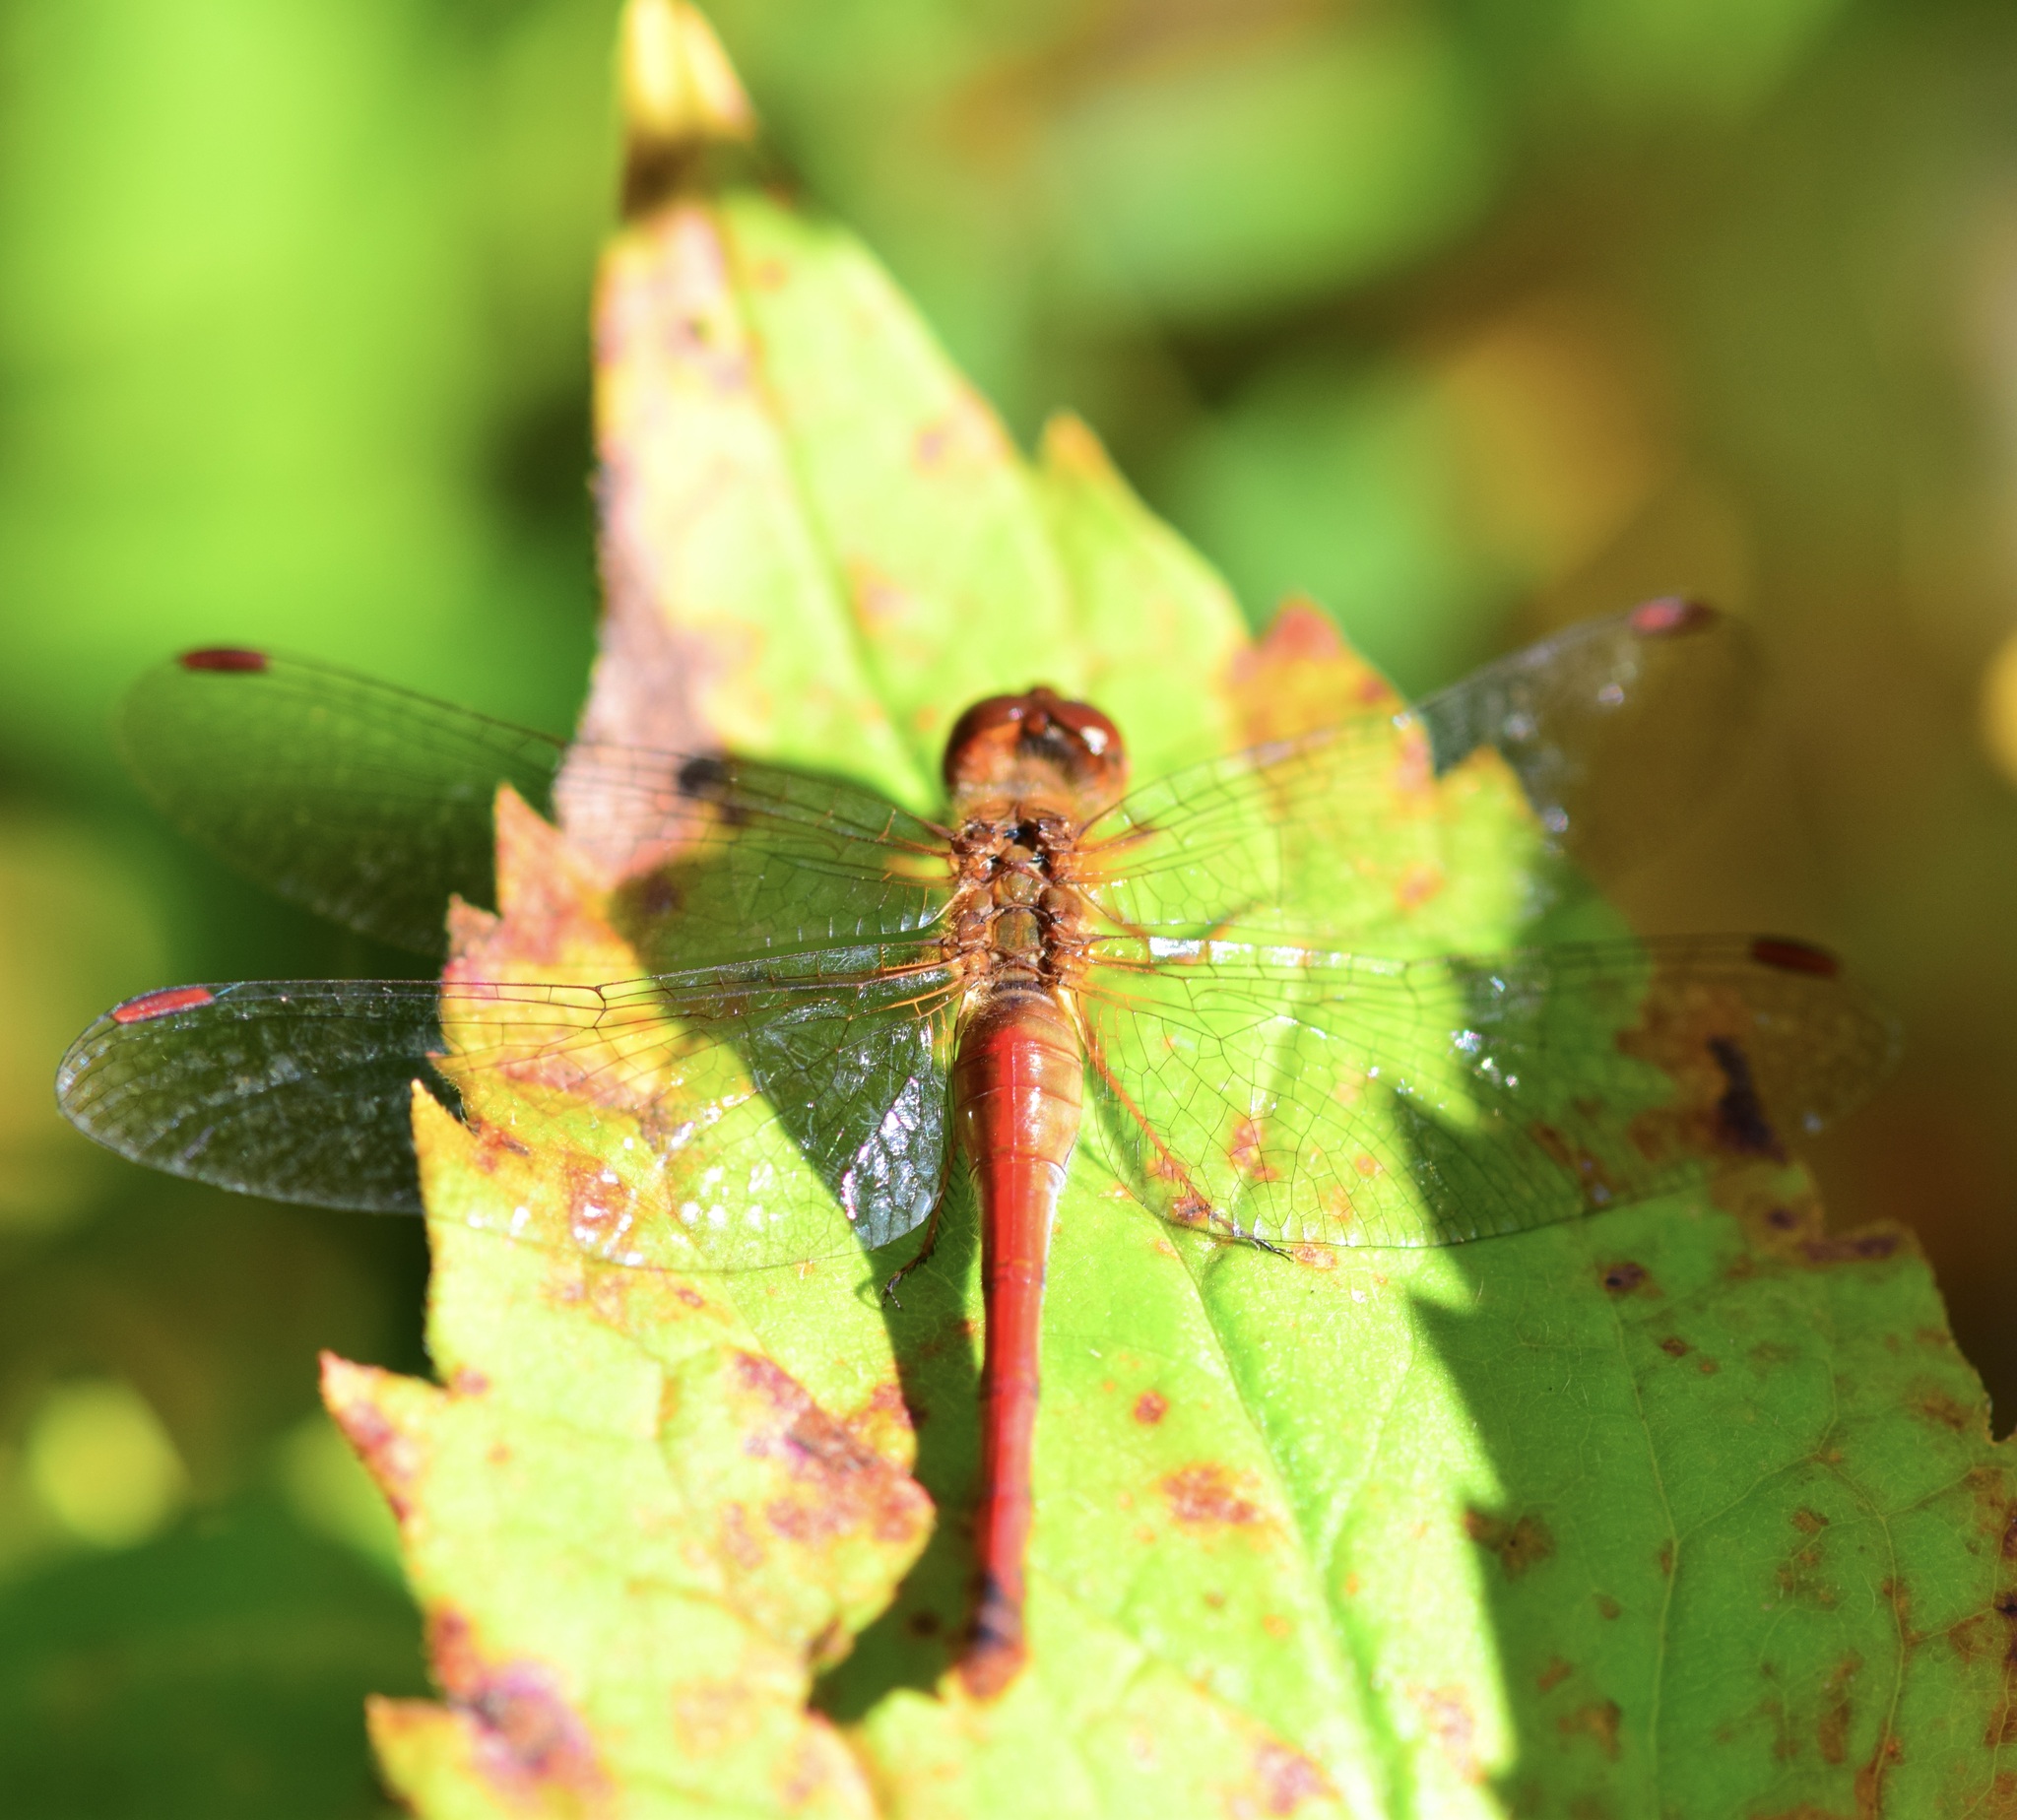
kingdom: Animalia
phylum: Arthropoda
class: Insecta
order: Odonata
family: Libellulidae
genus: Sympetrum
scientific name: Sympetrum vicinum
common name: Autumn meadowhawk
